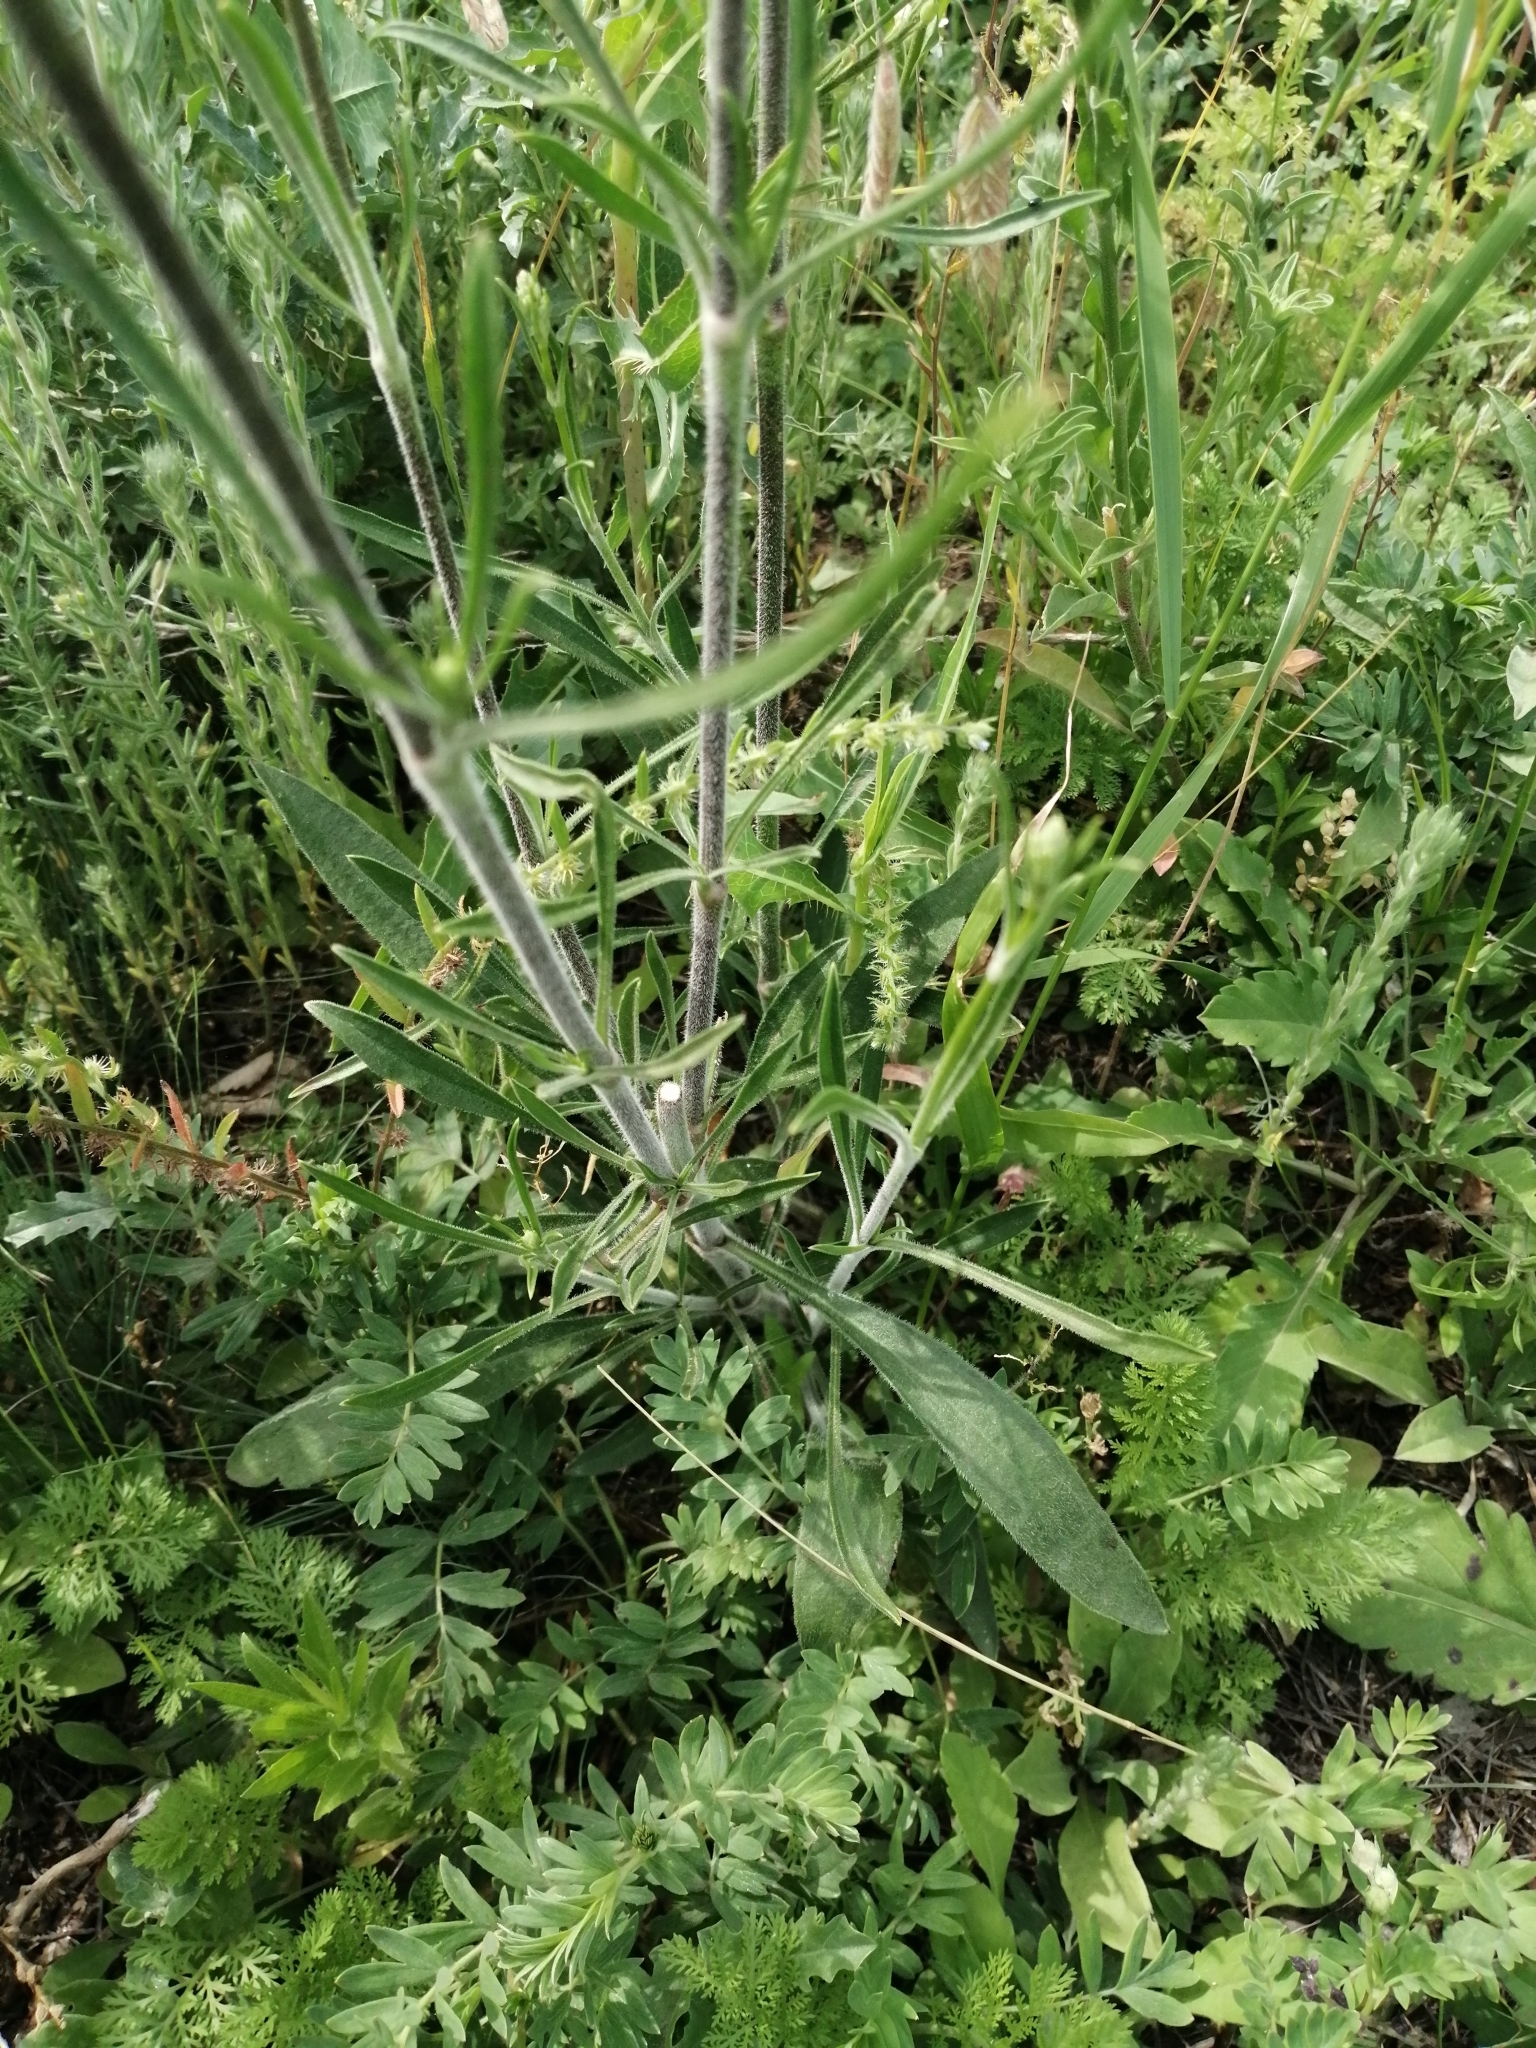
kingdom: Plantae
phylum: Tracheophyta
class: Magnoliopsida
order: Caryophyllales
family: Caryophyllaceae
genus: Silene
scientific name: Silene
